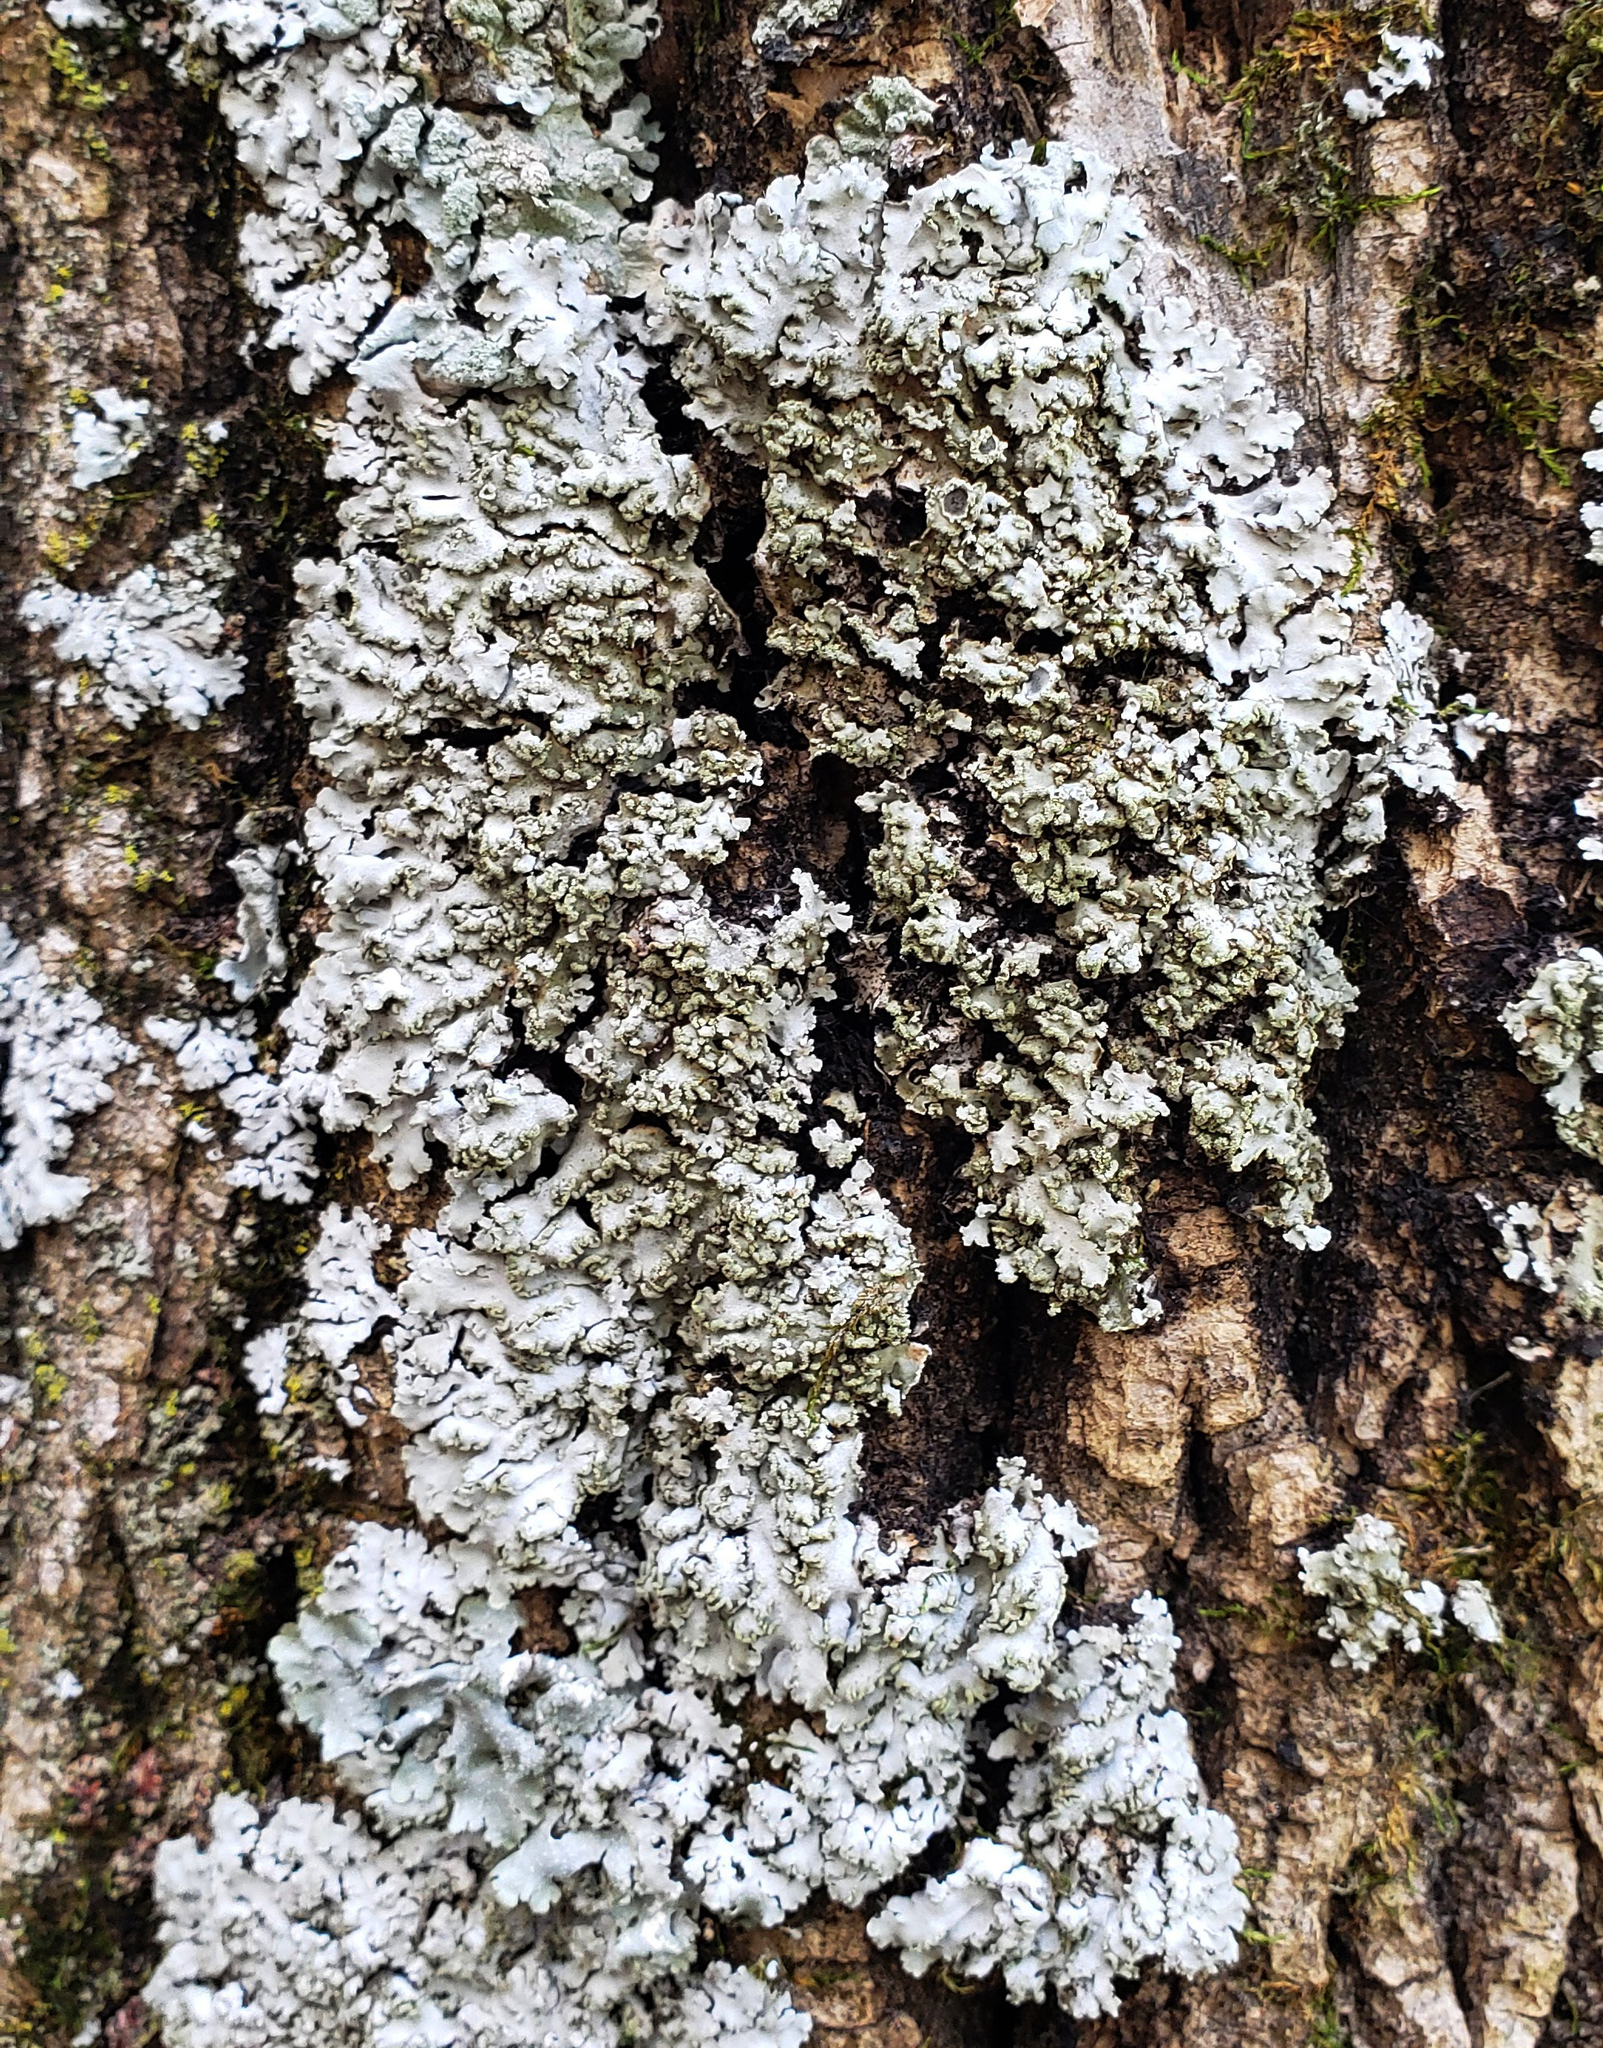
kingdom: Fungi
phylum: Ascomycota
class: Lecanoromycetes
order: Caliciales
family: Physciaceae
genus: Physconia
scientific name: Physconia
